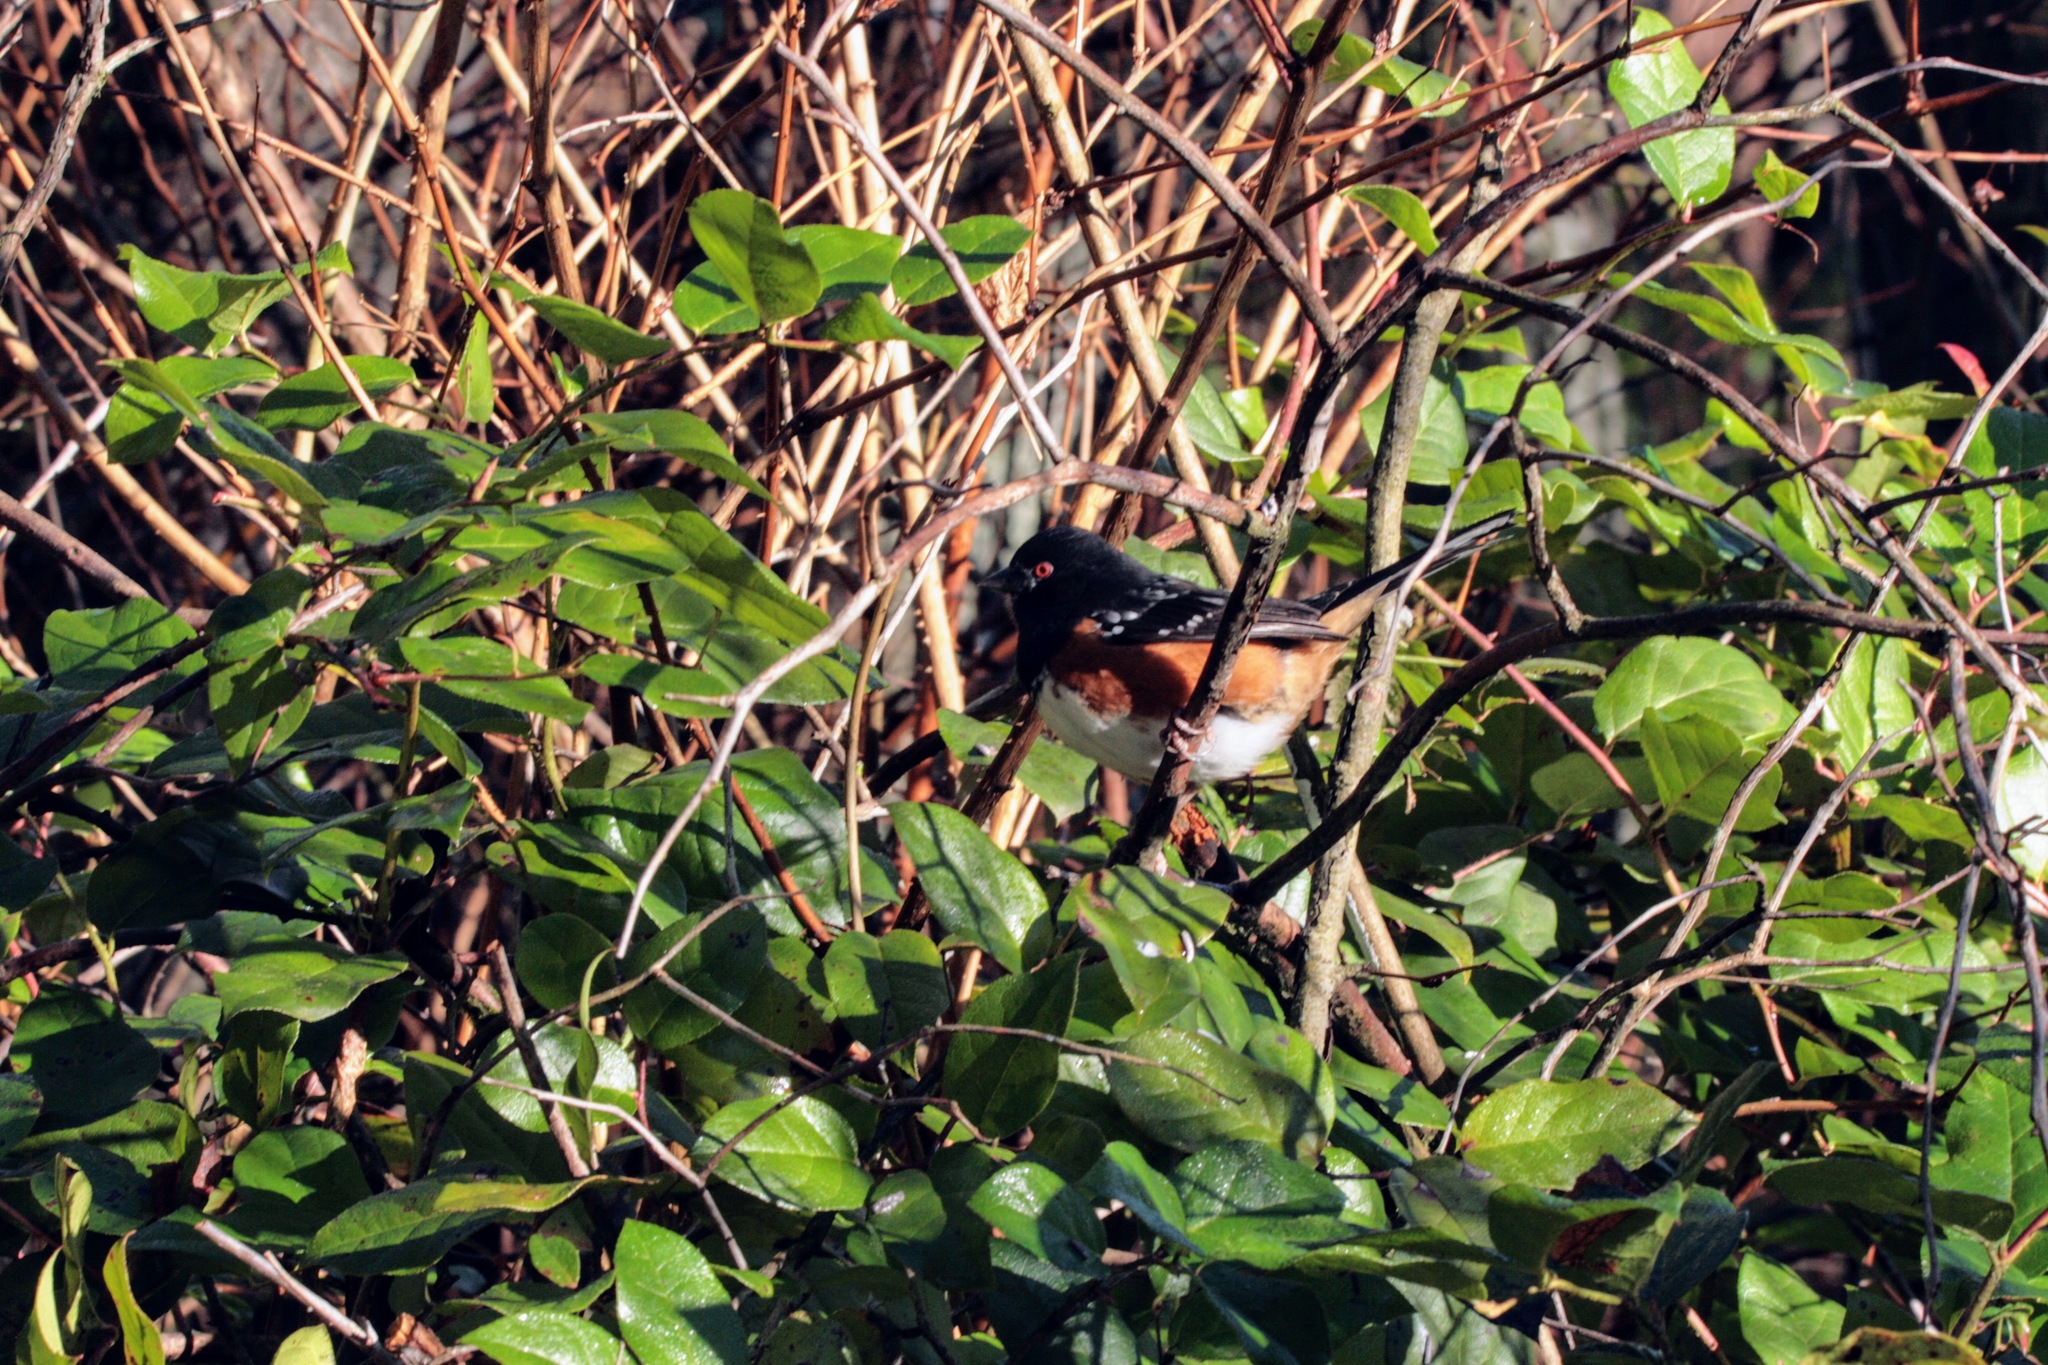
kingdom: Animalia
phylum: Chordata
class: Aves
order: Passeriformes
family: Passerellidae
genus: Pipilo
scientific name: Pipilo maculatus
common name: Spotted towhee
